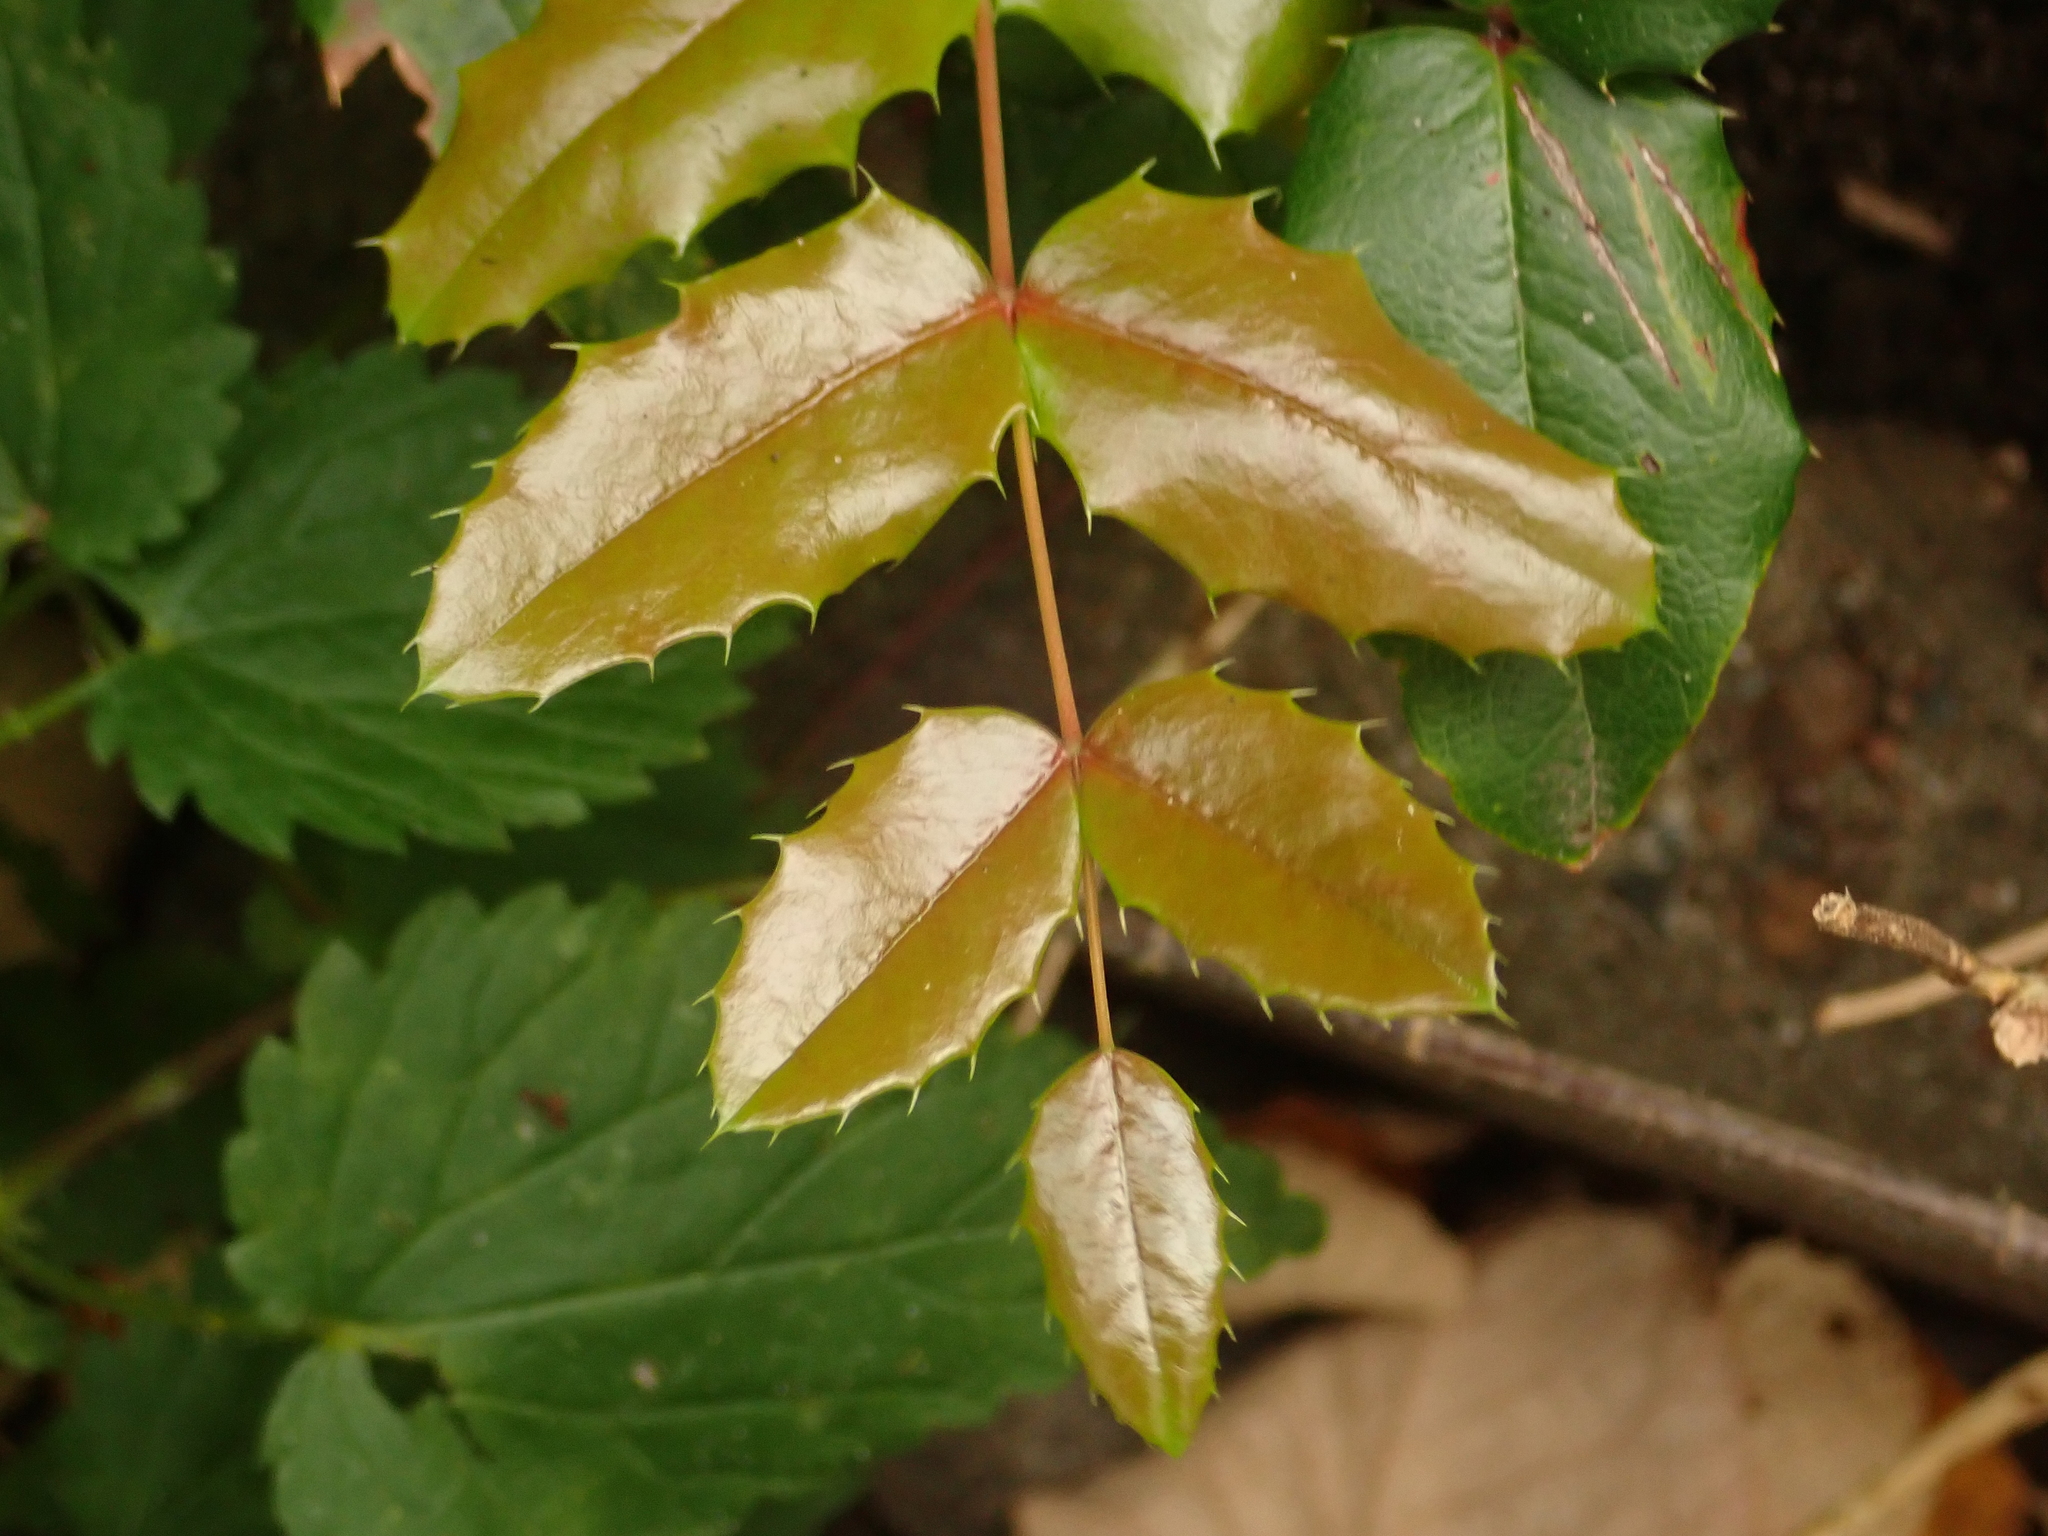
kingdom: Plantae
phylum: Tracheophyta
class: Magnoliopsida
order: Ranunculales
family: Berberidaceae
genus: Mahonia
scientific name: Mahonia aquifolium
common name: Oregon-grape
